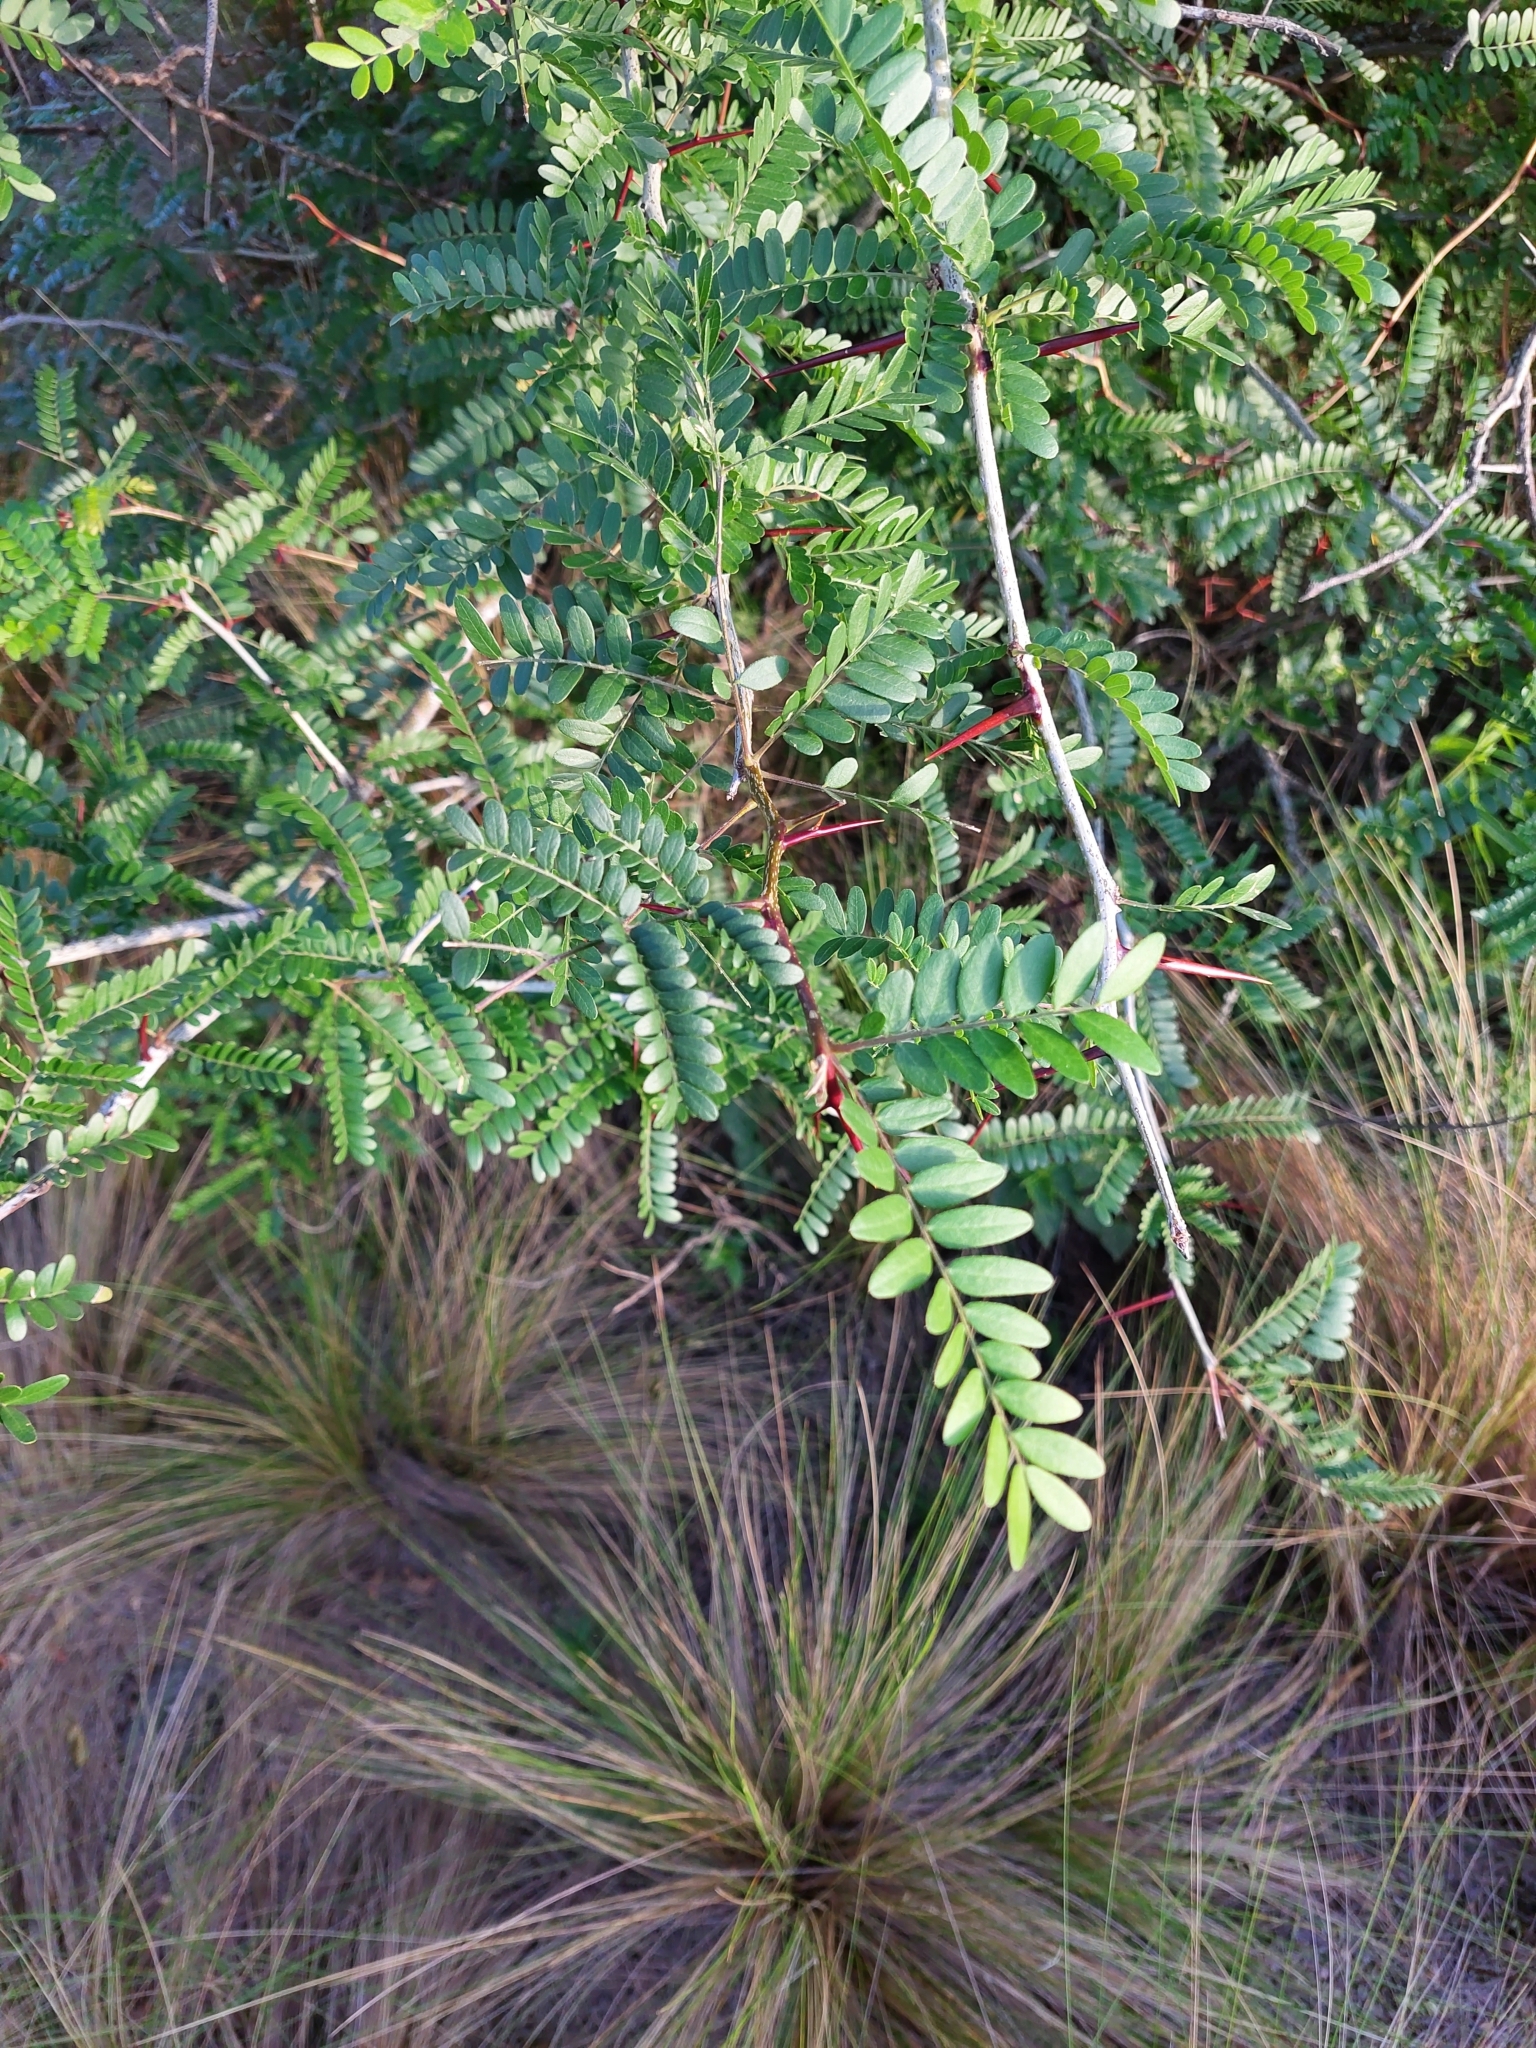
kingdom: Plantae
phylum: Tracheophyta
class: Magnoliopsida
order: Fabales
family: Fabaceae
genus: Gleditsia
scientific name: Gleditsia triacanthos
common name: Common honeylocust
